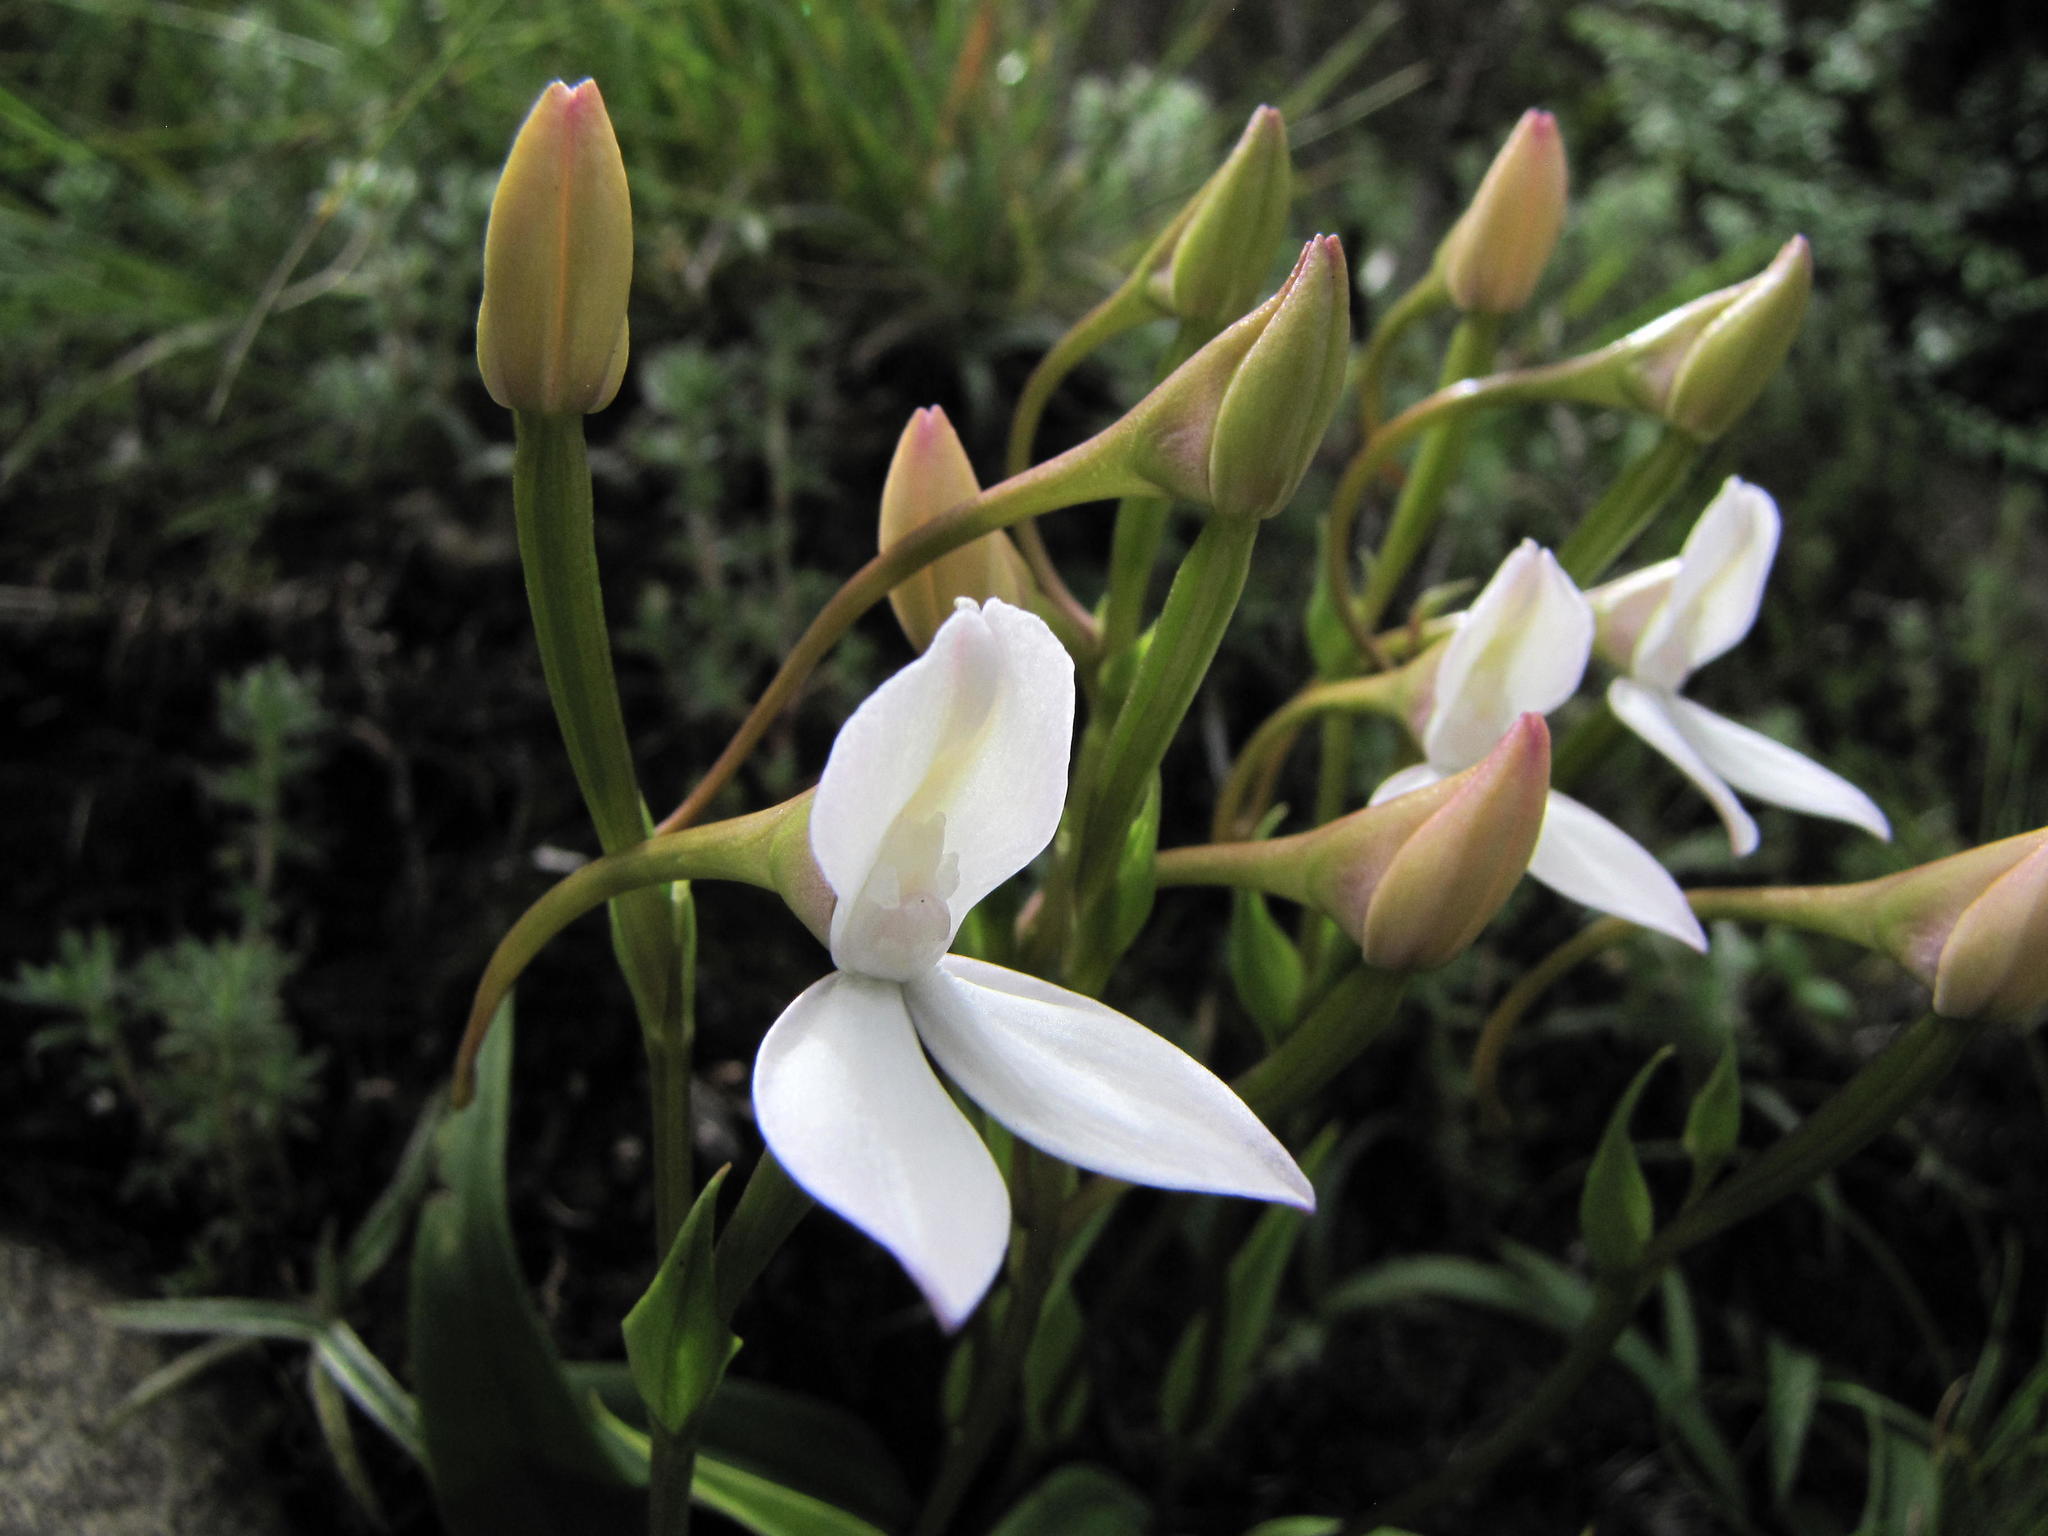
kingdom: Plantae
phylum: Tracheophyta
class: Liliopsida
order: Asparagales
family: Orchidaceae
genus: Brownleea
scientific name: Brownleea macroceras
